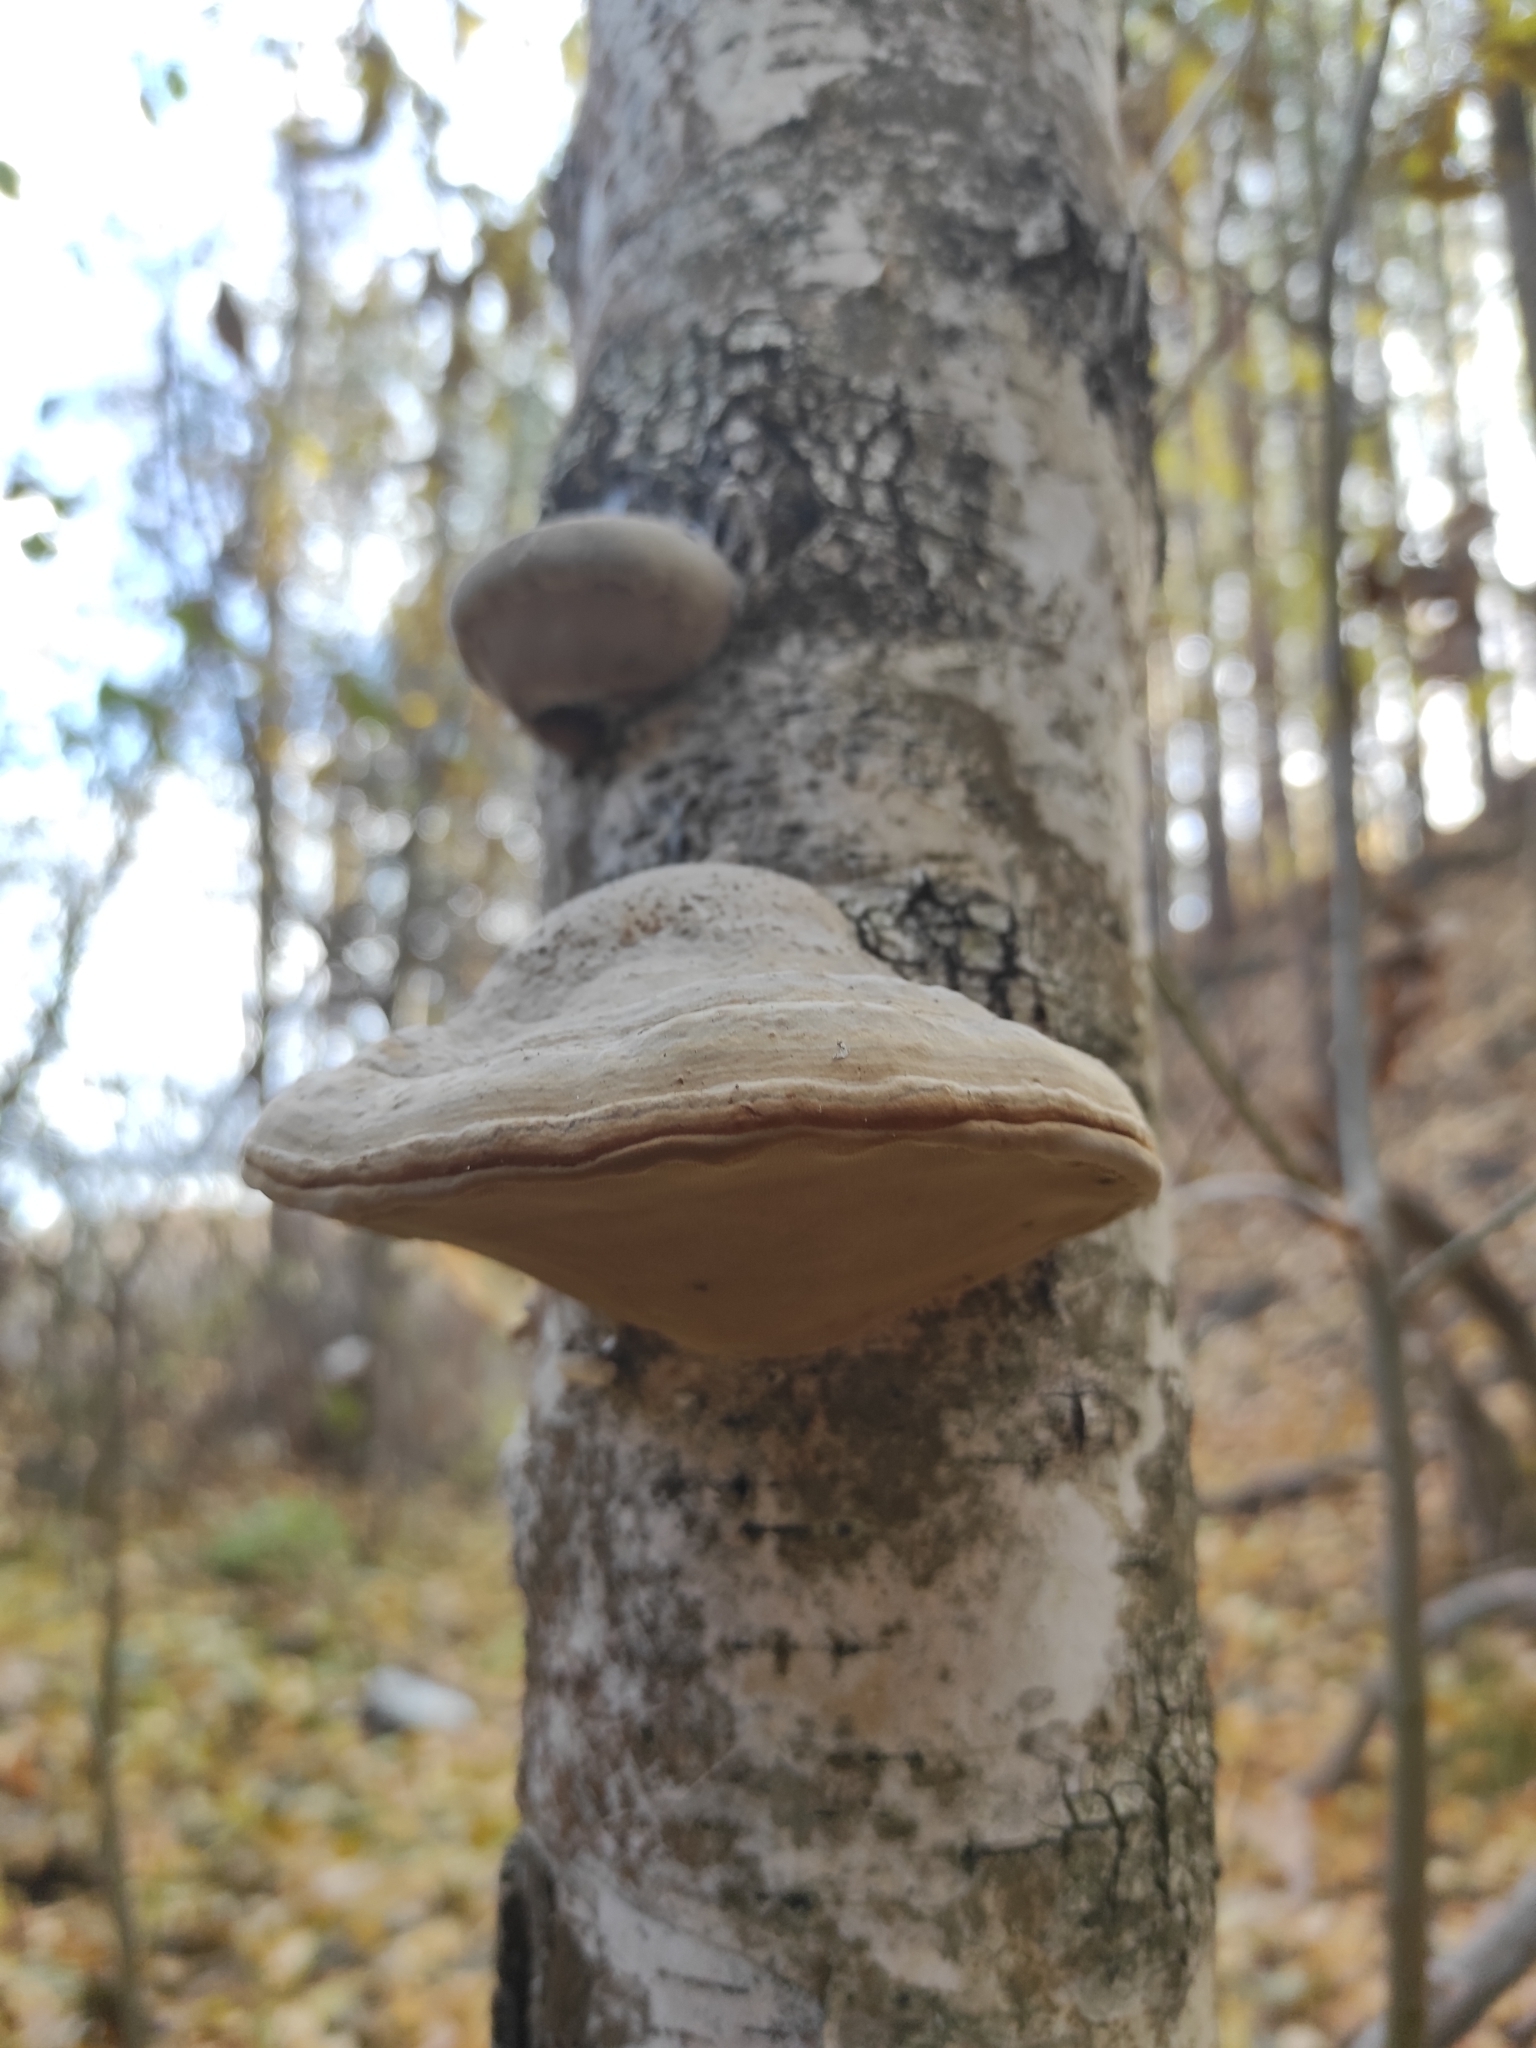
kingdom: Fungi
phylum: Basidiomycota
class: Agaricomycetes
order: Polyporales
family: Polyporaceae
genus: Fomes
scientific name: Fomes fomentarius
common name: Hoof fungus
